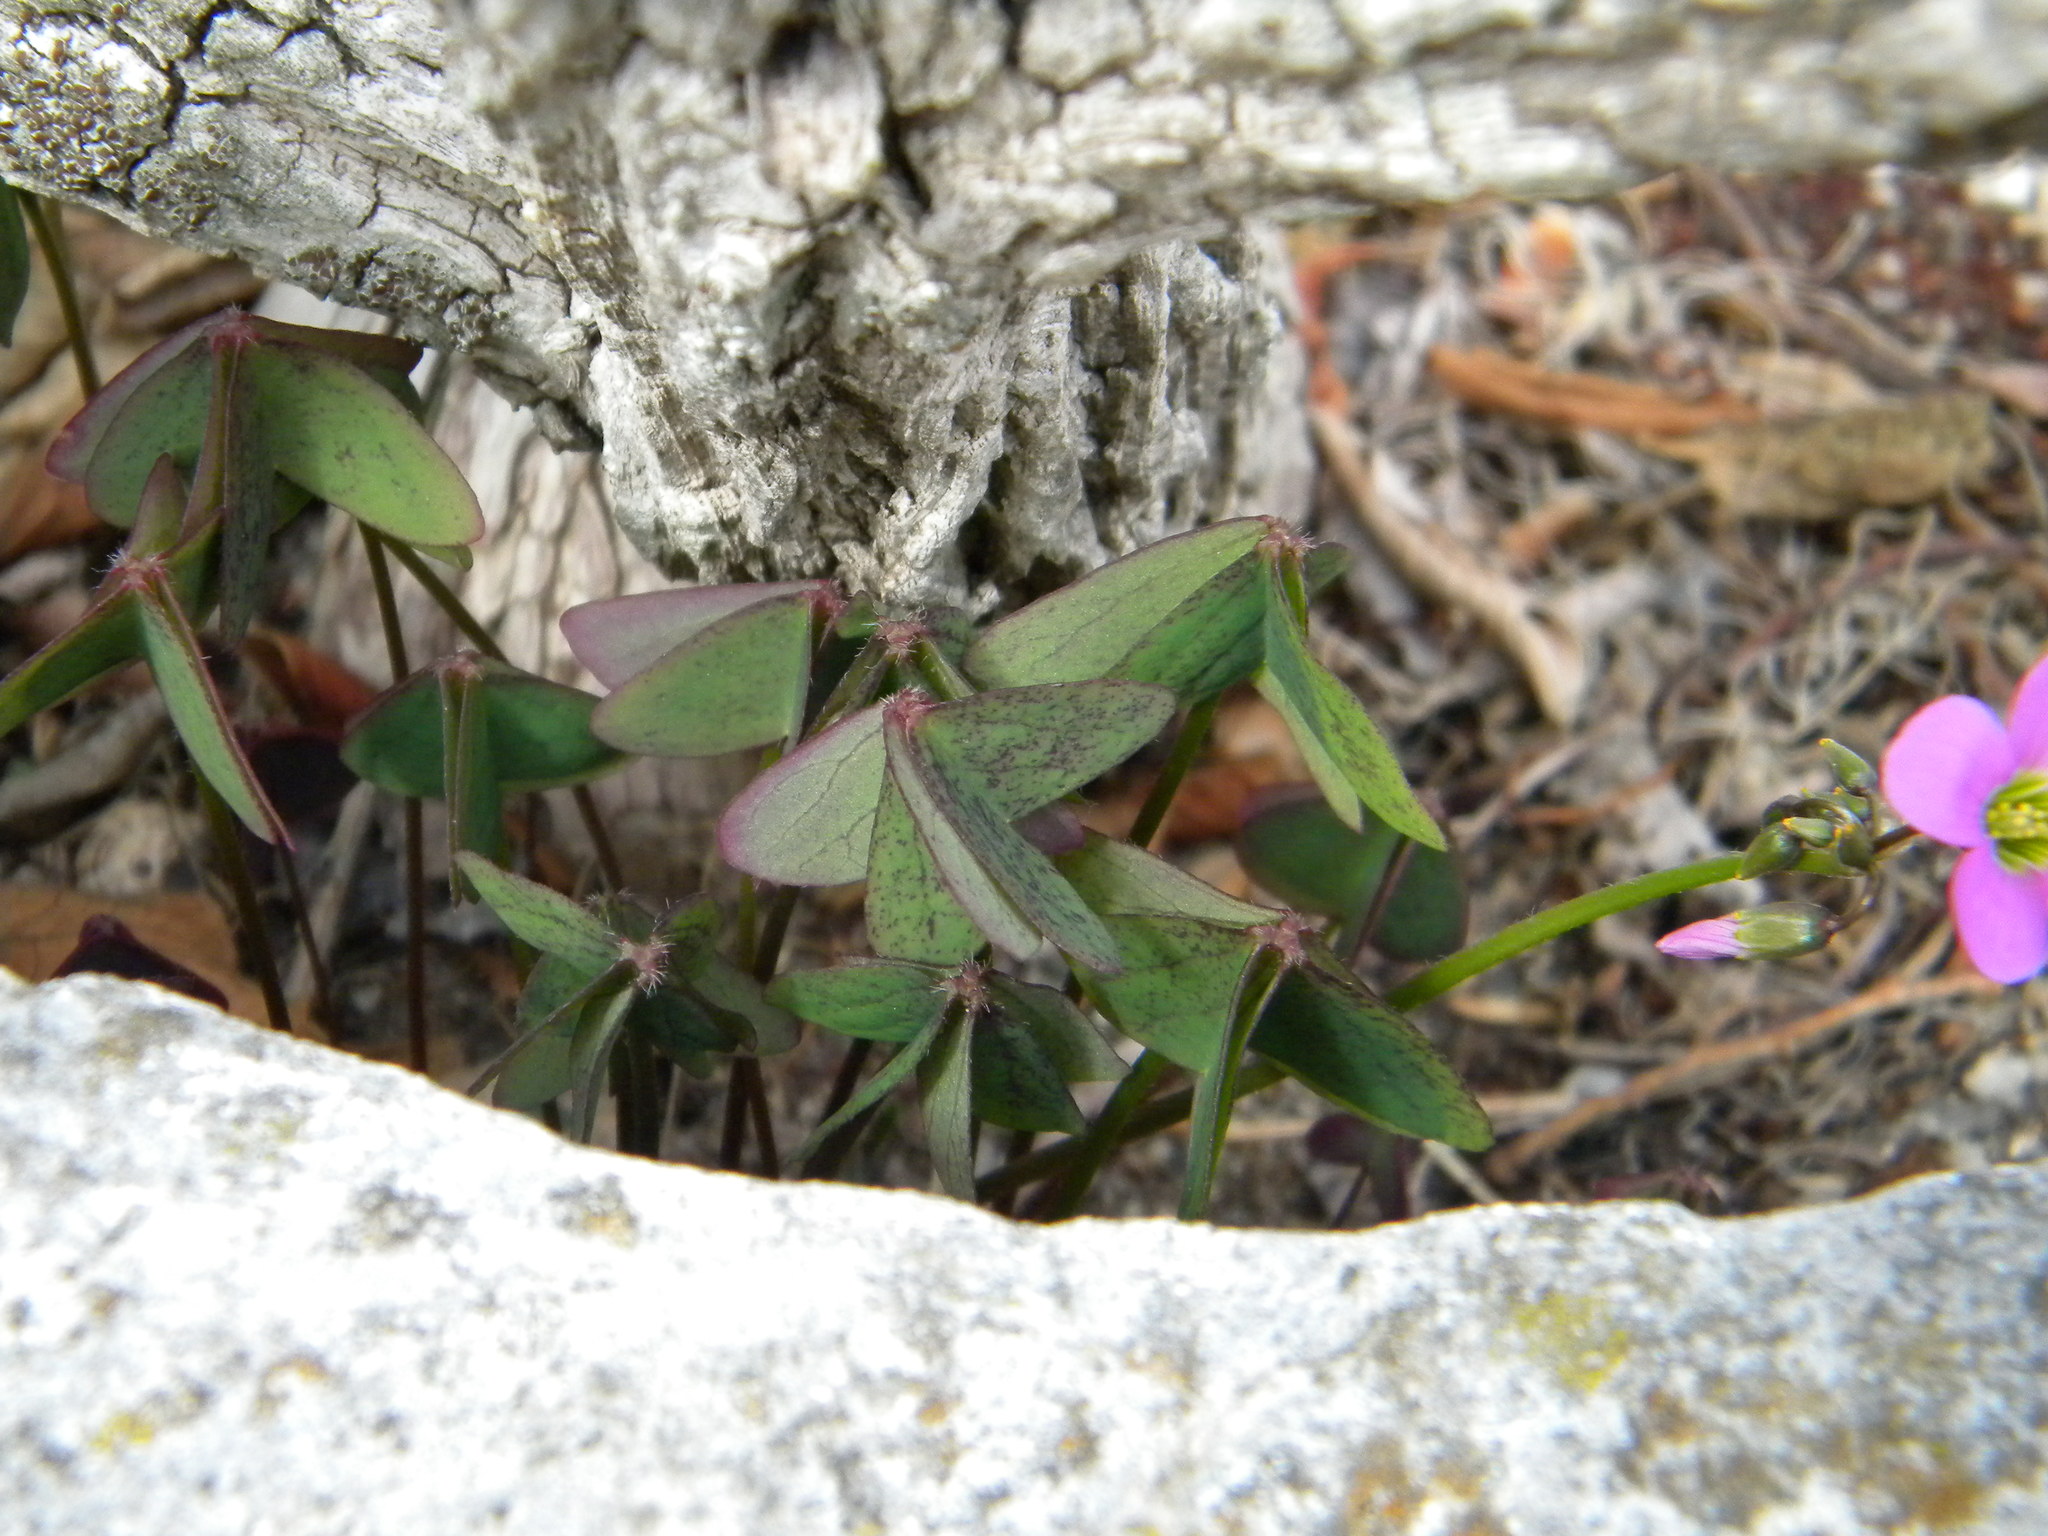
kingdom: Plantae
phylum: Tracheophyta
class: Magnoliopsida
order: Oxalidales
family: Oxalidaceae
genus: Oxalis
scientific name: Oxalis latifolia
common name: Garden pink-sorrel
